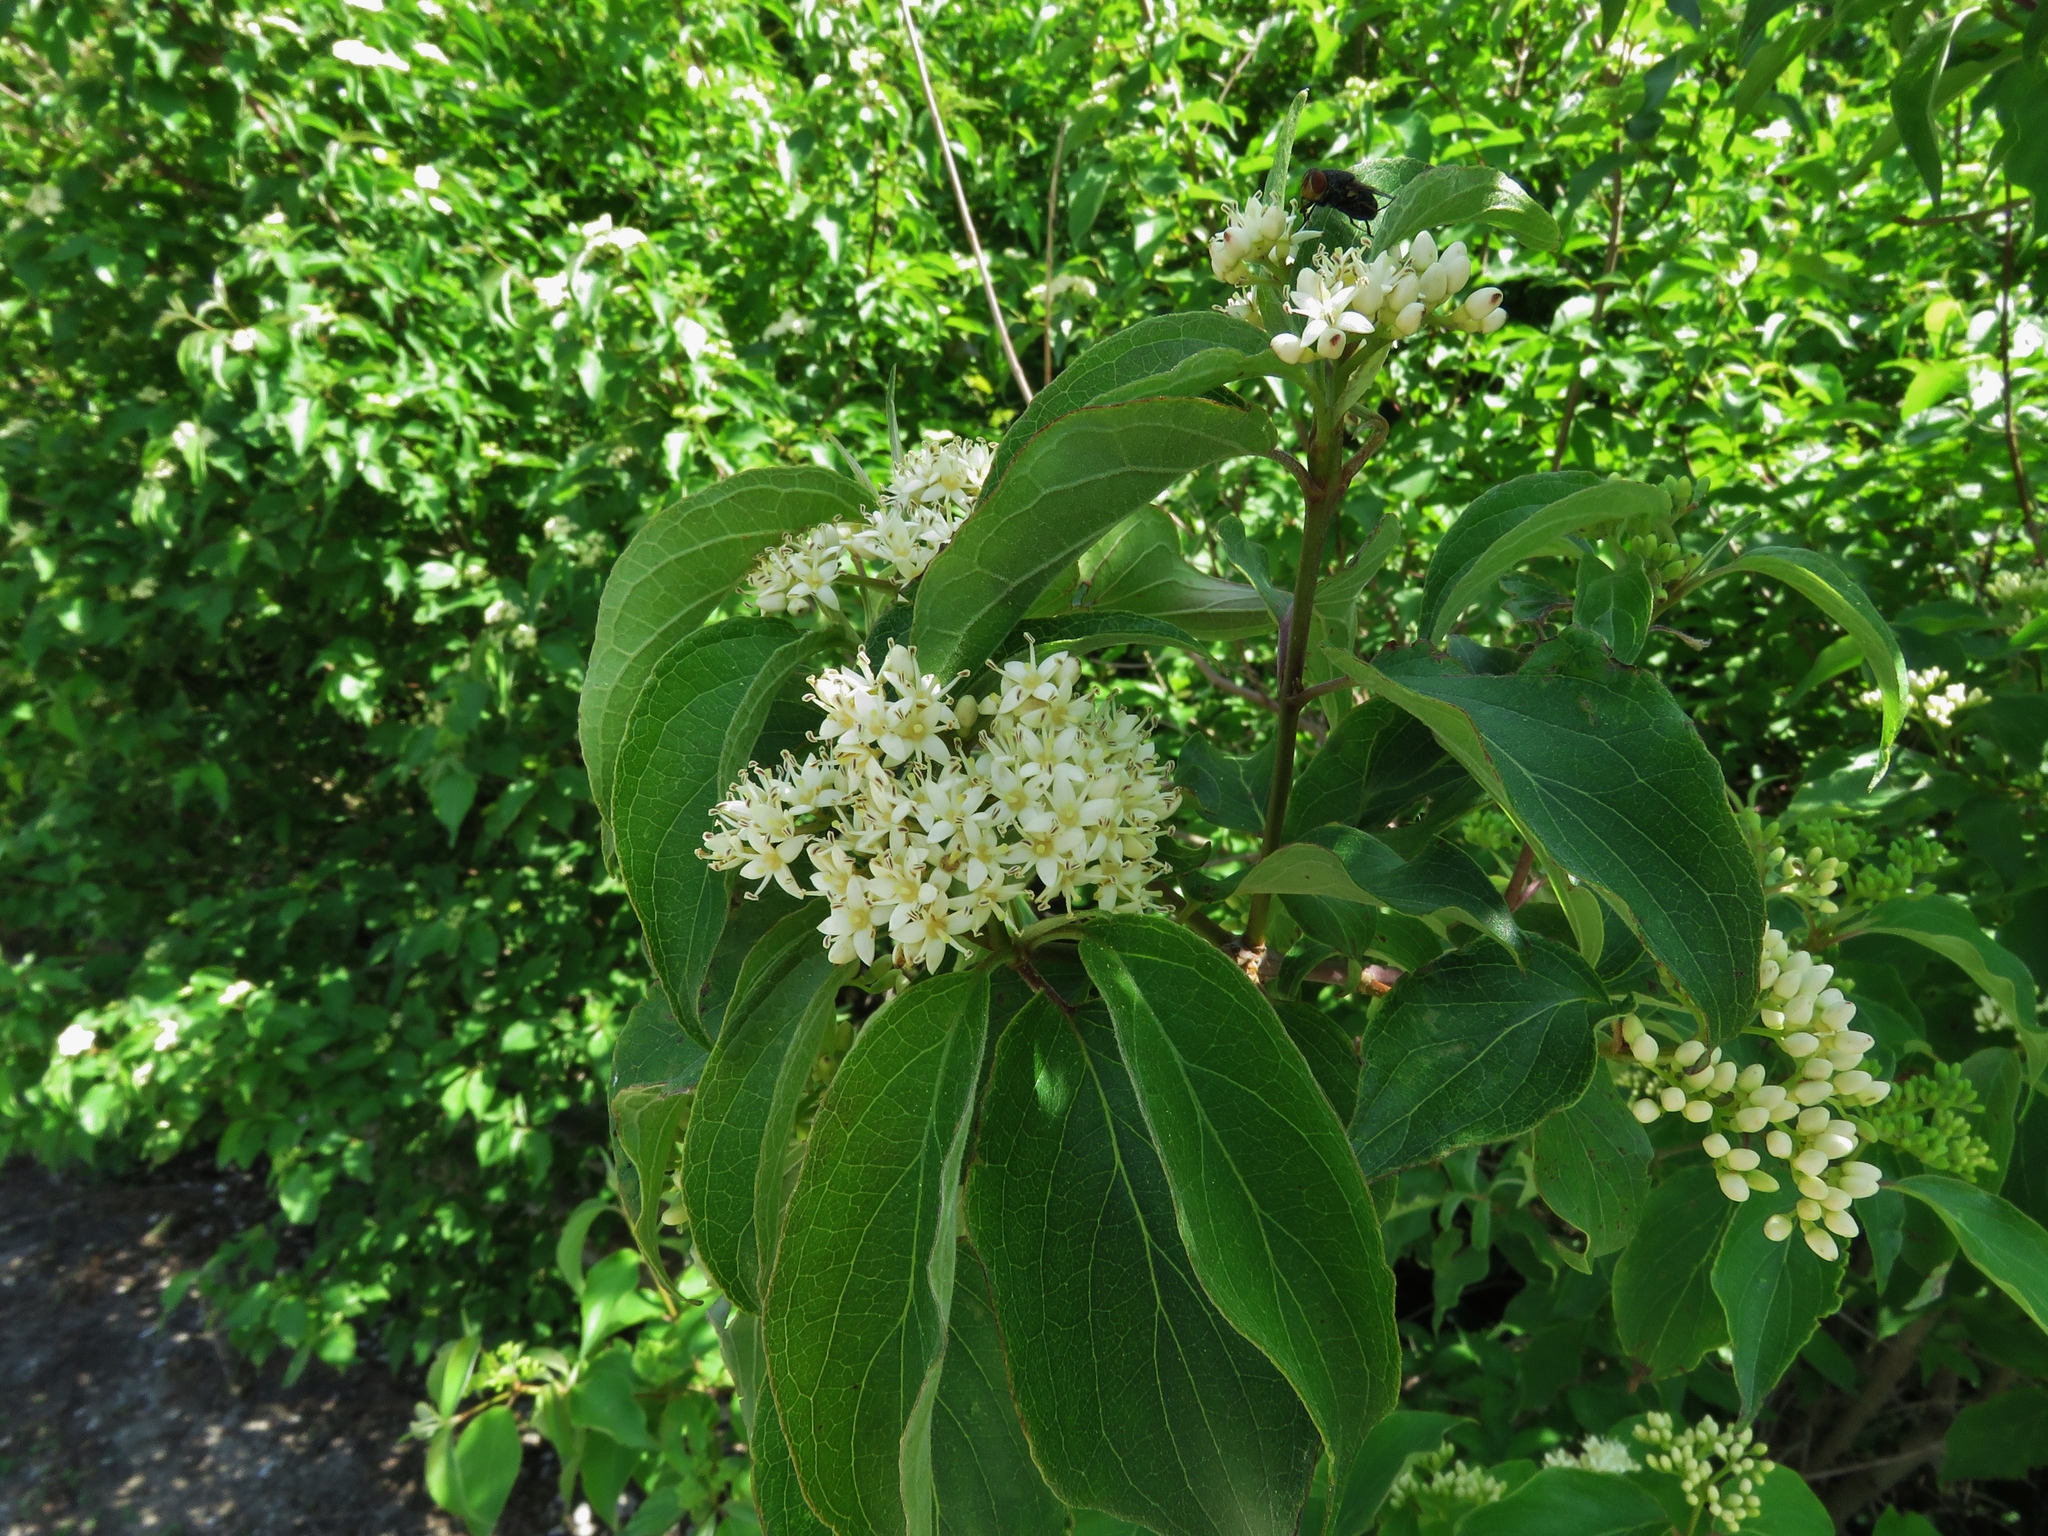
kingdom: Plantae
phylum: Tracheophyta
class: Magnoliopsida
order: Cornales
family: Cornaceae
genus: Cornus
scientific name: Cornus drummondii
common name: Rough-leaf dogwood
